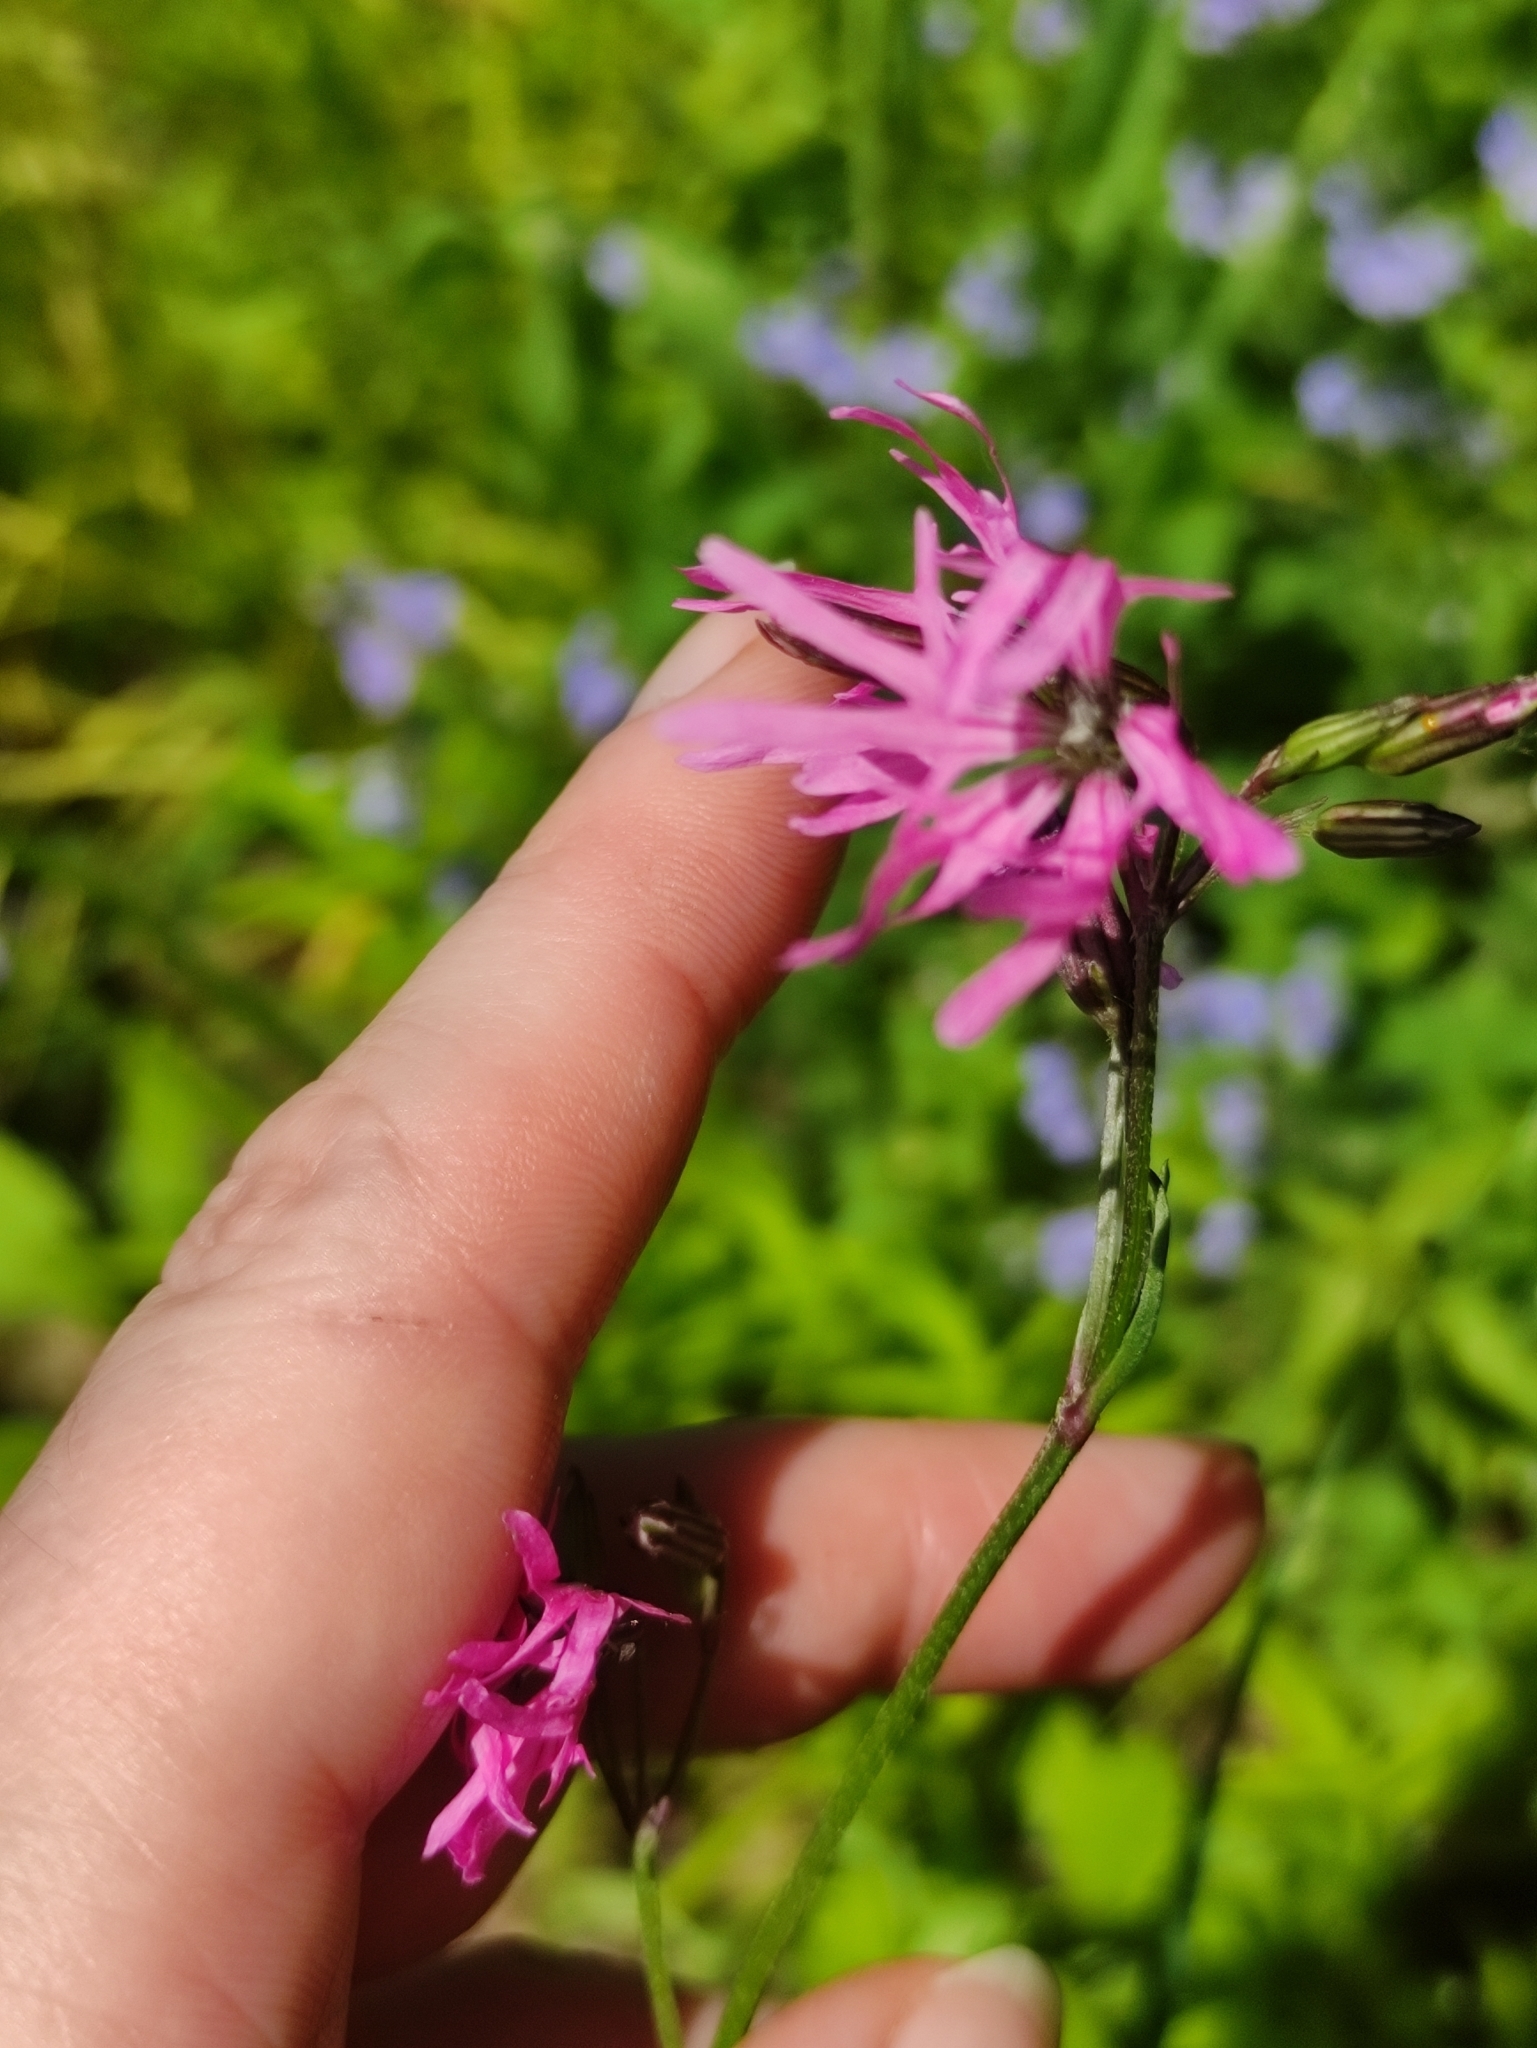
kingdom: Plantae
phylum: Tracheophyta
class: Magnoliopsida
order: Caryophyllales
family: Caryophyllaceae
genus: Silene
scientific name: Silene flos-cuculi
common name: Ragged-robin
